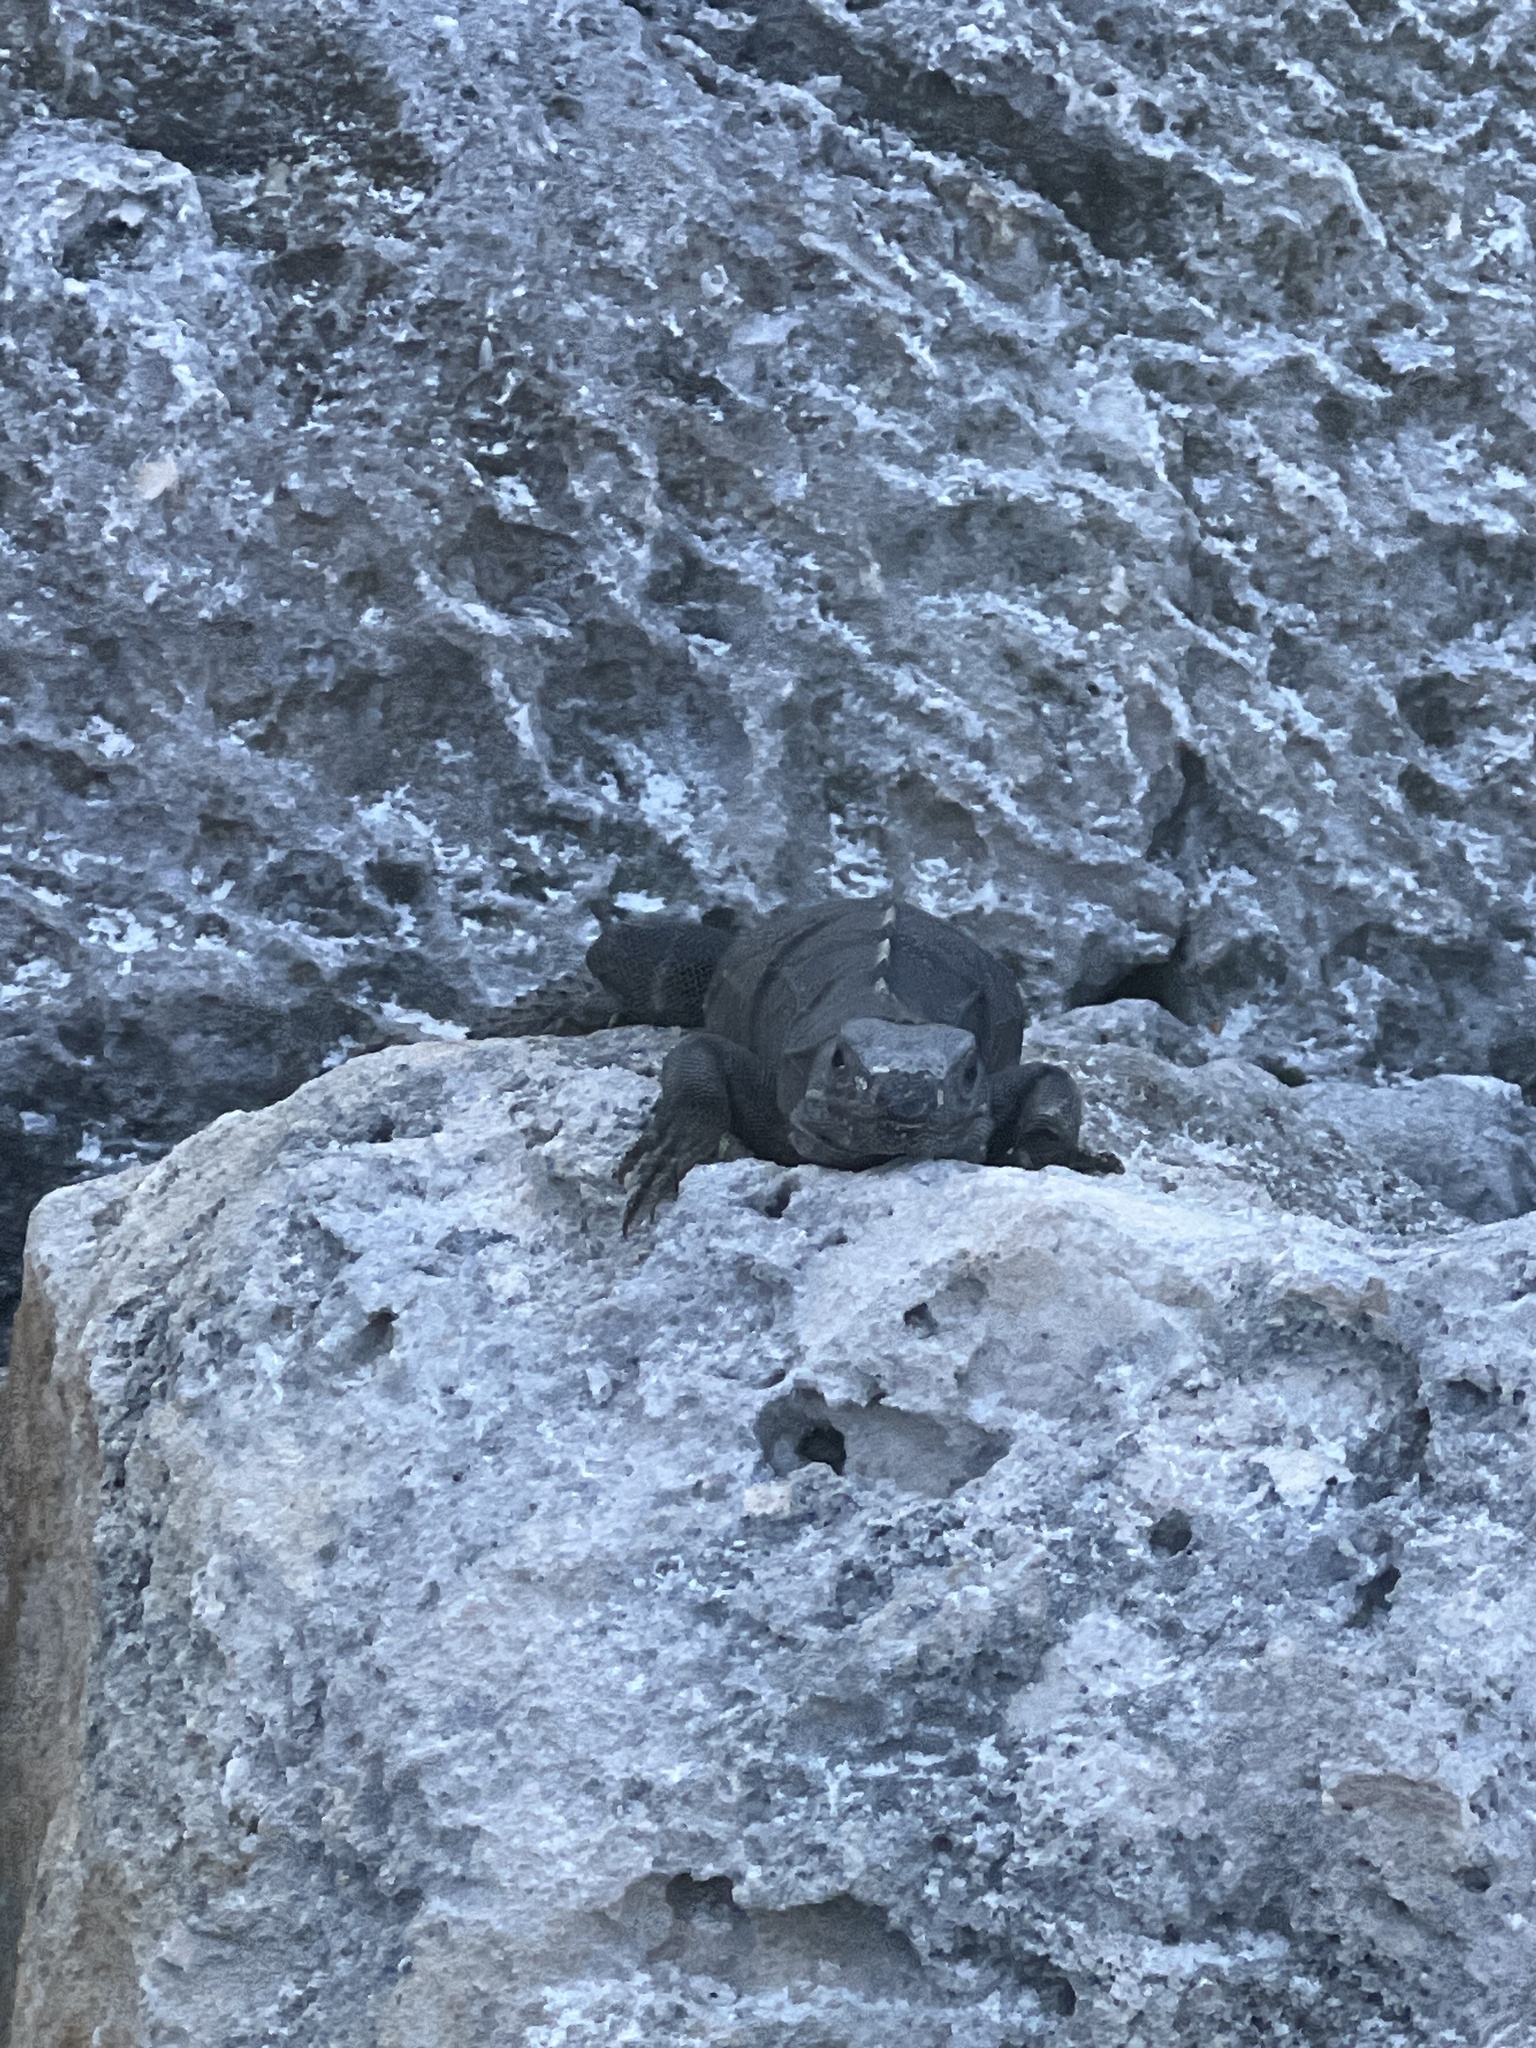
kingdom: Animalia
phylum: Chordata
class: Squamata
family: Iguanidae
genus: Ctenosaura
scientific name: Ctenosaura similis
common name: Black spiny-tailed iguana
